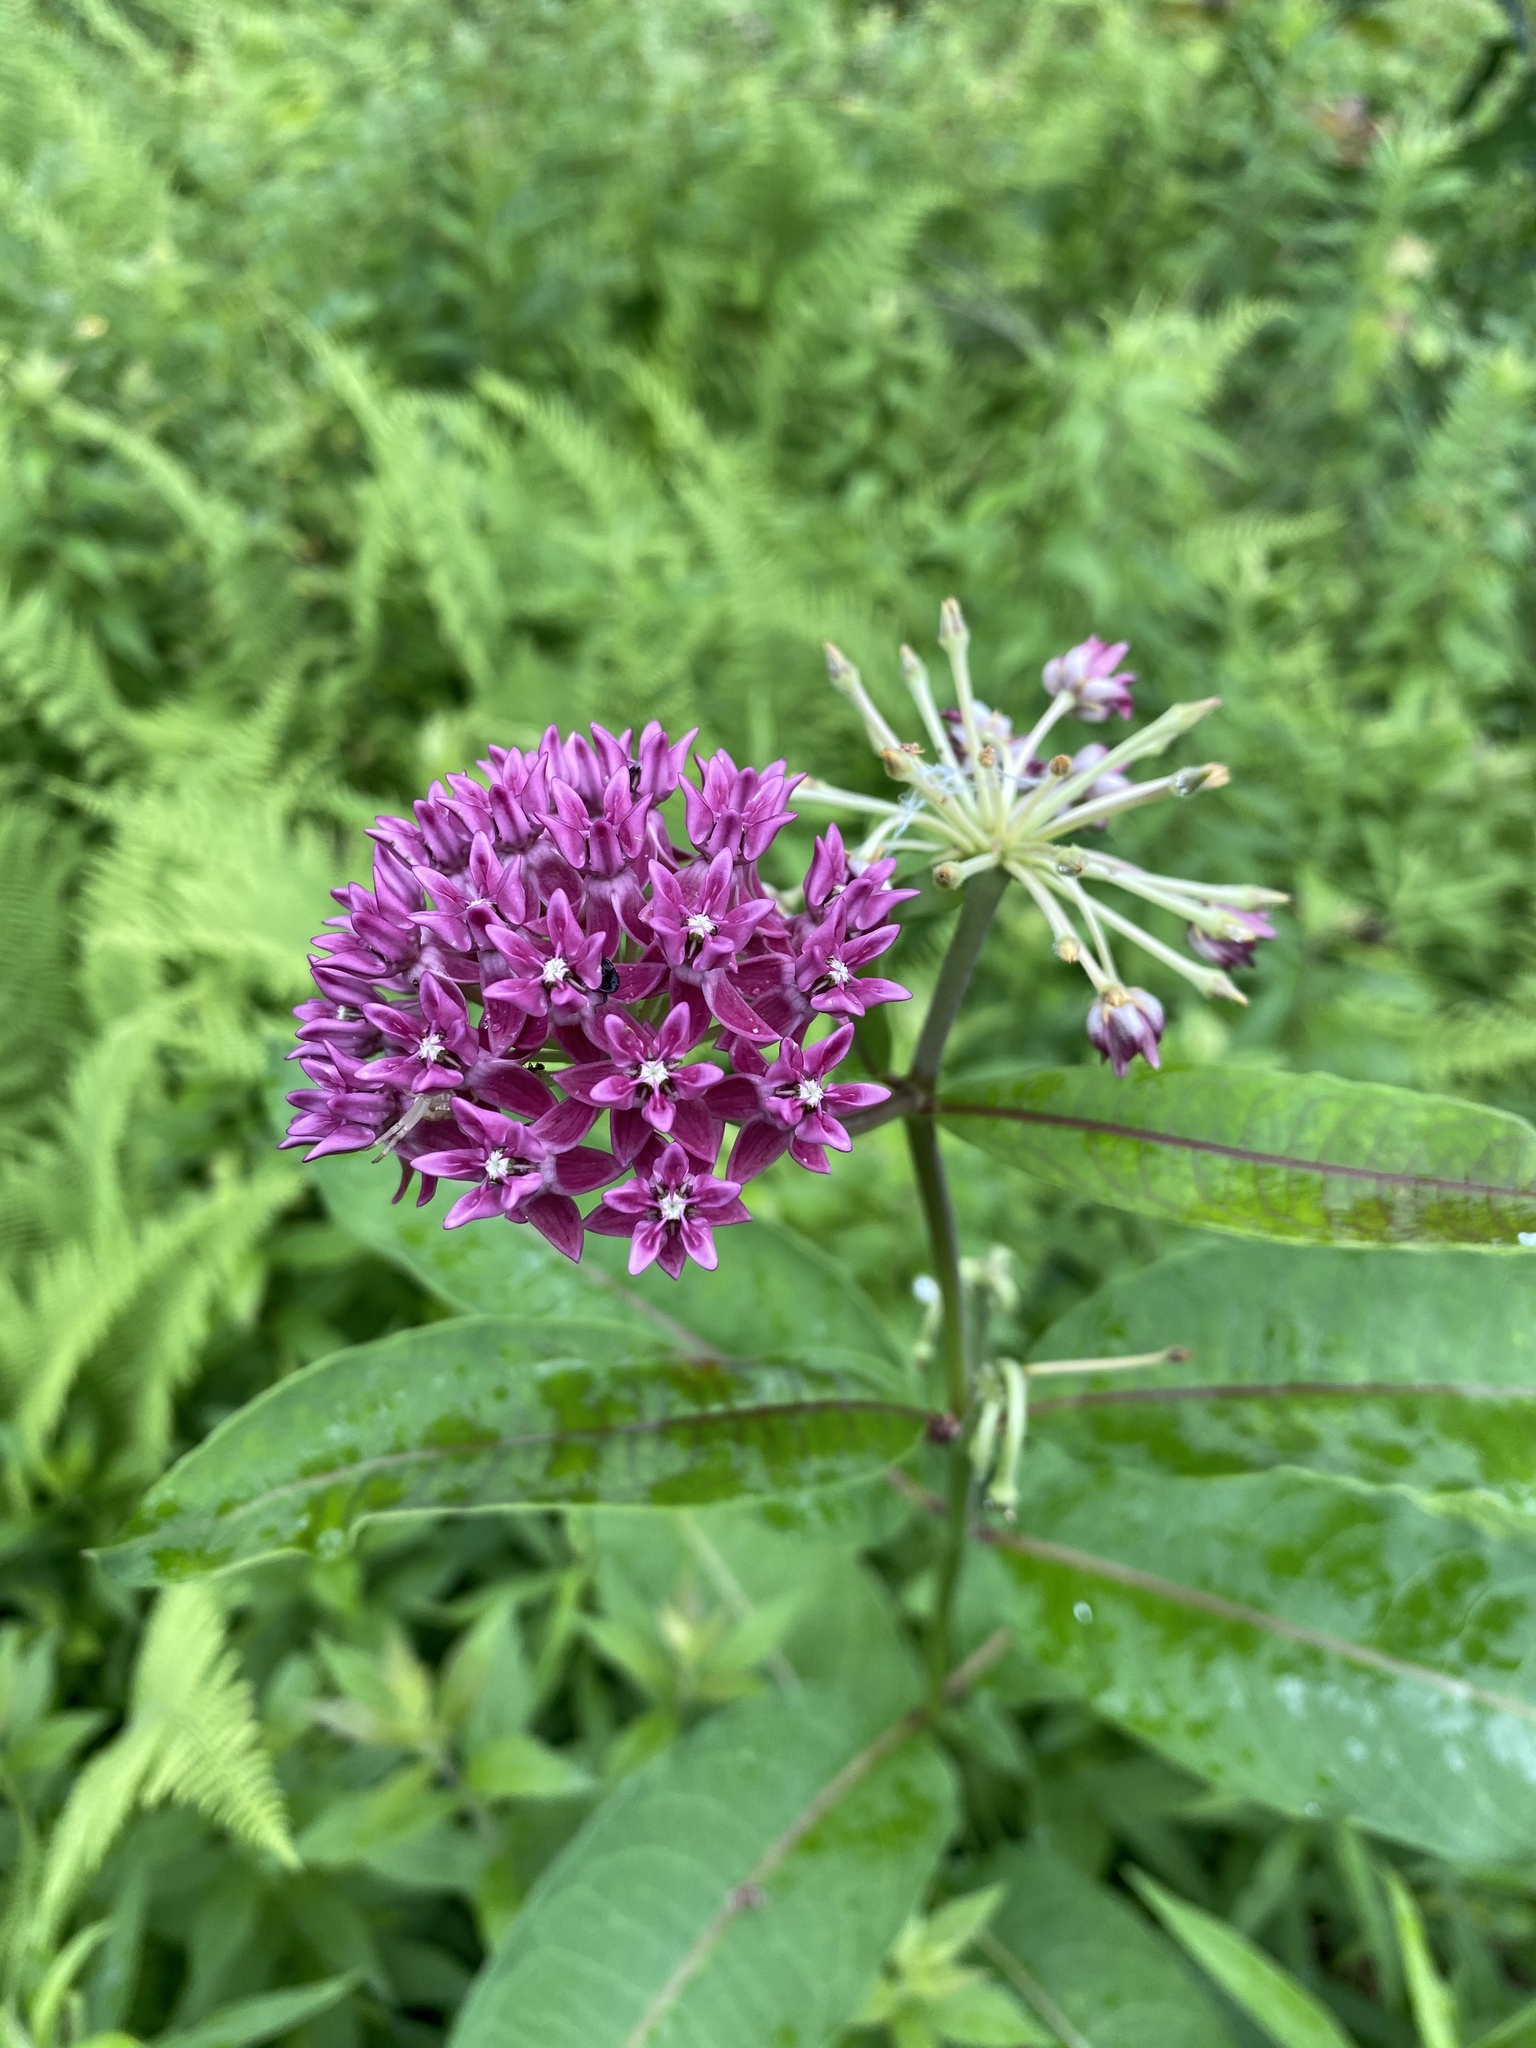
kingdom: Plantae
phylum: Tracheophyta
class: Magnoliopsida
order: Gentianales
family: Apocynaceae
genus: Asclepias
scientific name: Asclepias purpurascens
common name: Purple milkweed
